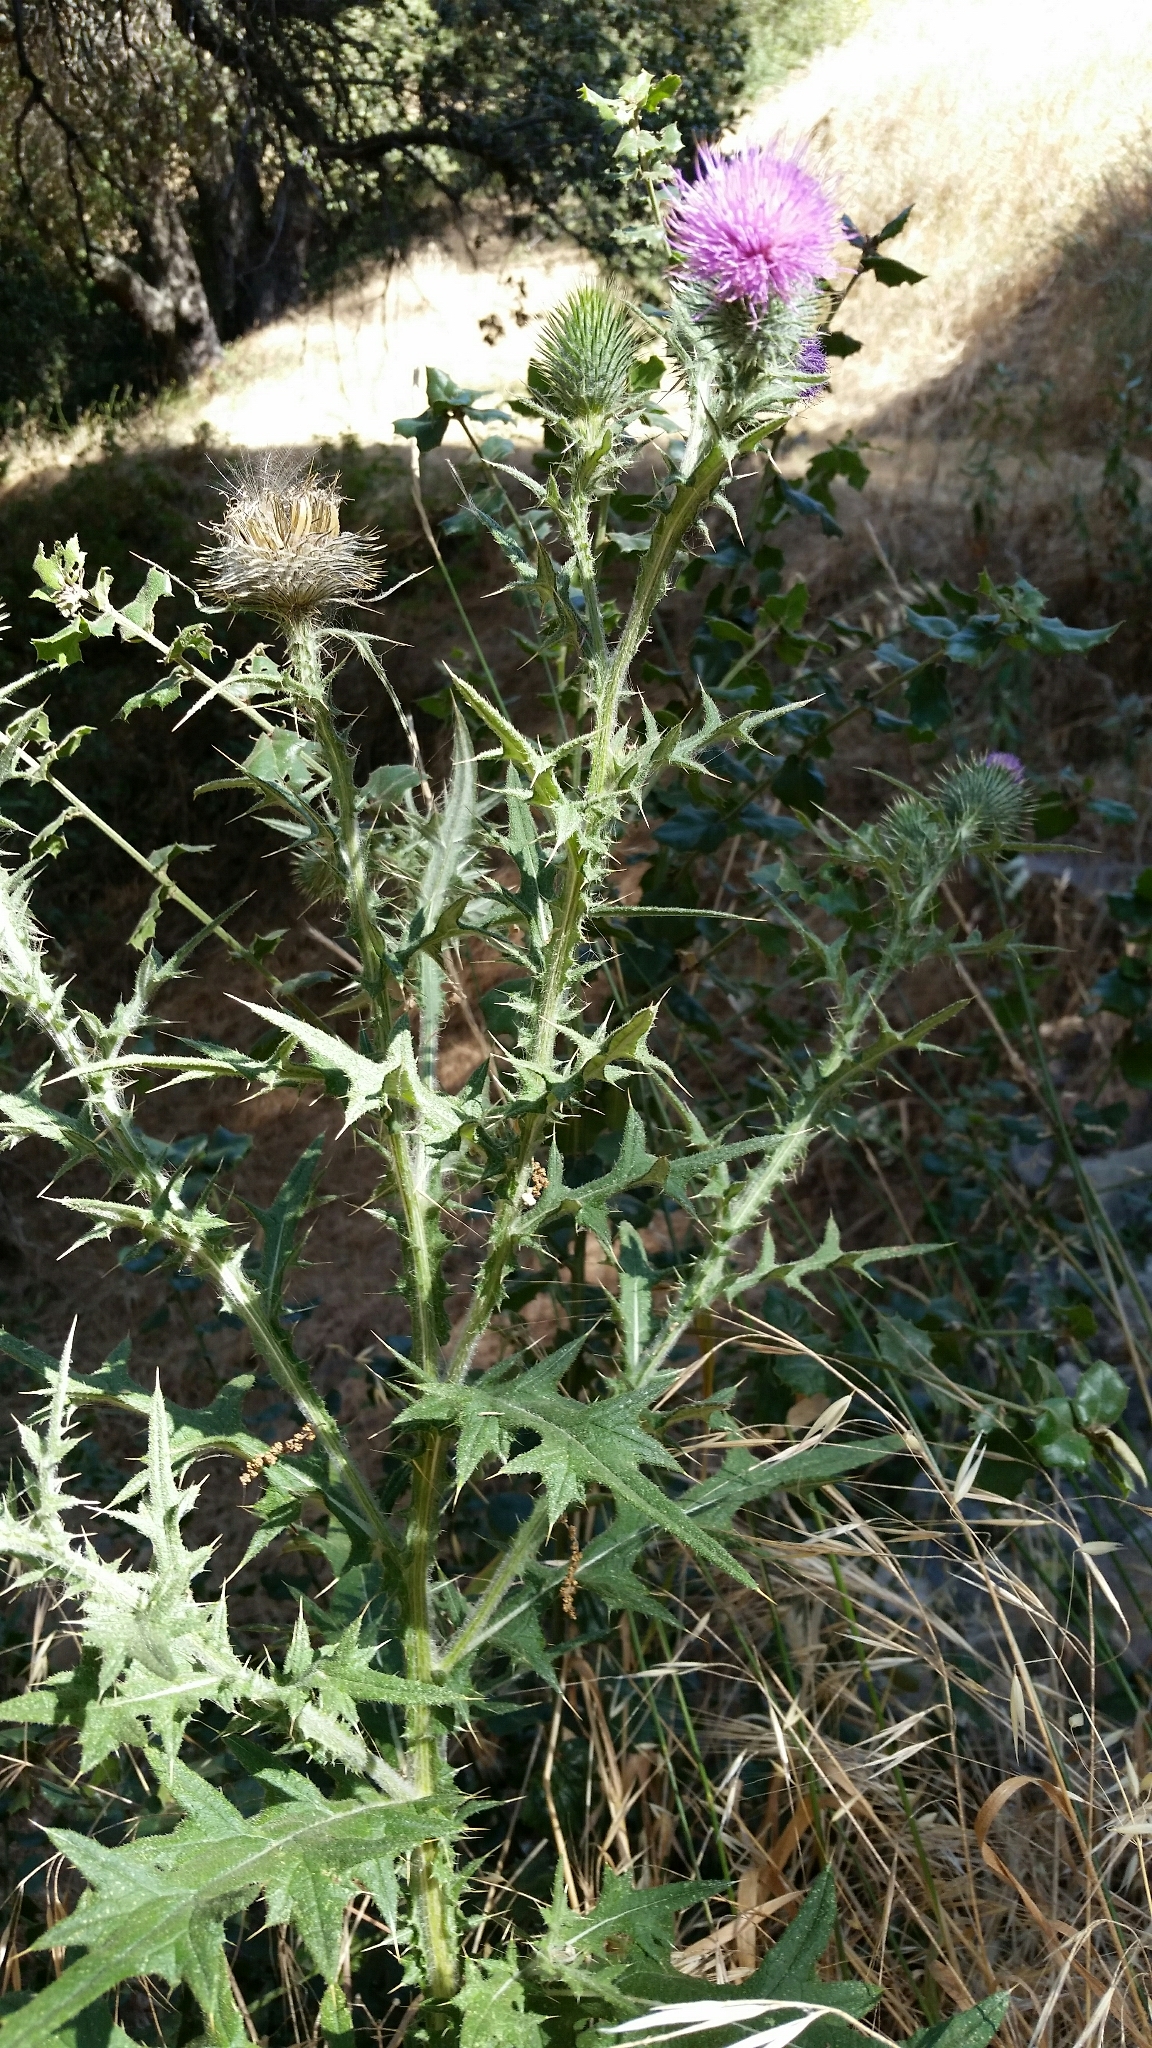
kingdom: Plantae
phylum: Tracheophyta
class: Magnoliopsida
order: Asterales
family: Asteraceae
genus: Cirsium
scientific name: Cirsium vulgare
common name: Bull thistle
